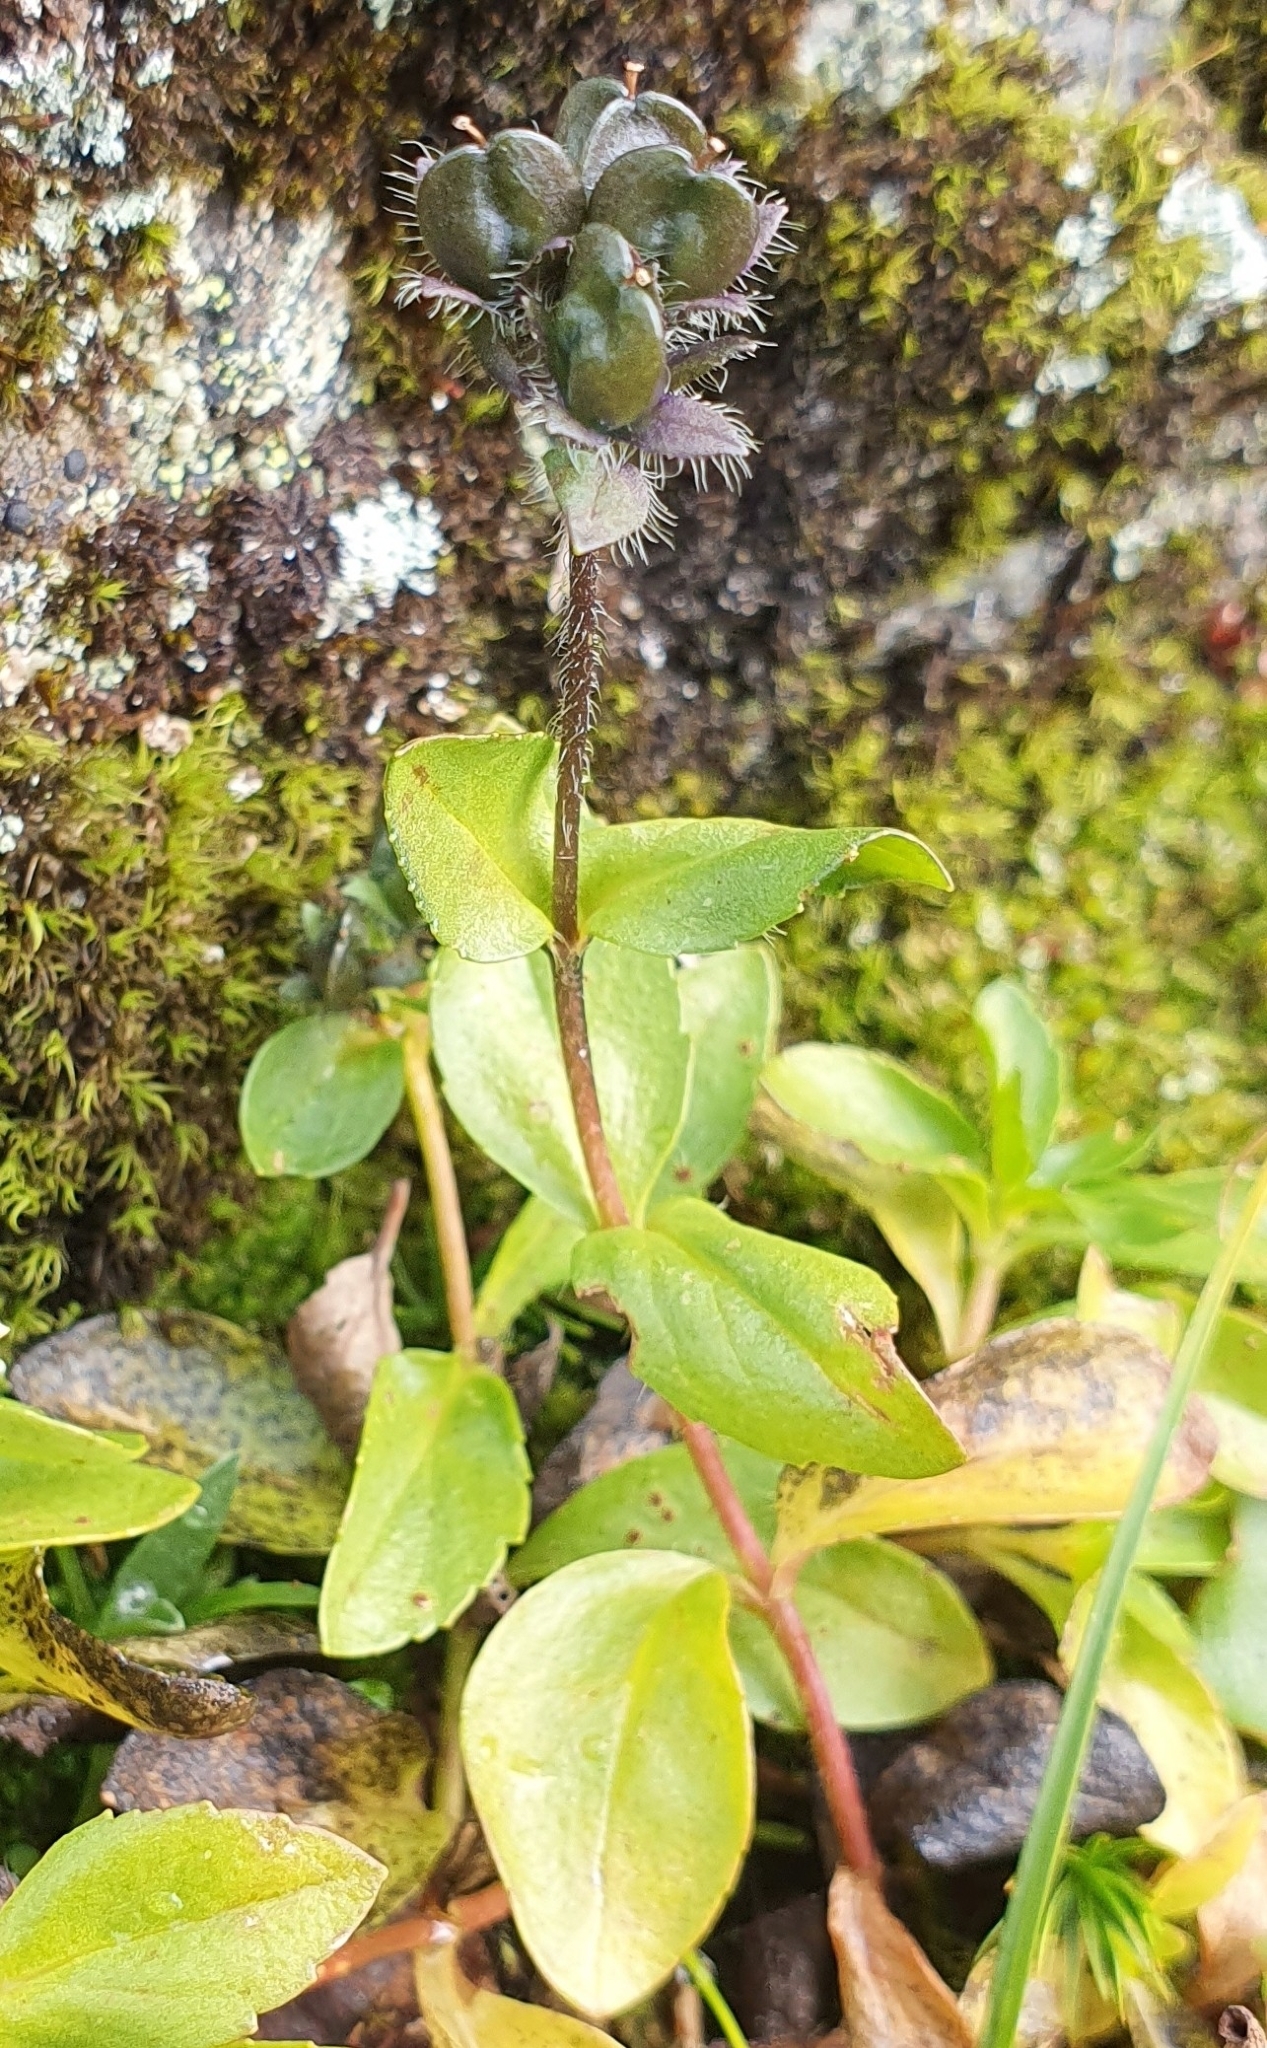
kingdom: Plantae
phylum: Tracheophyta
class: Magnoliopsida
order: Lamiales
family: Plantaginaceae
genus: Veronica
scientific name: Veronica alpina
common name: Alpine speedwell
